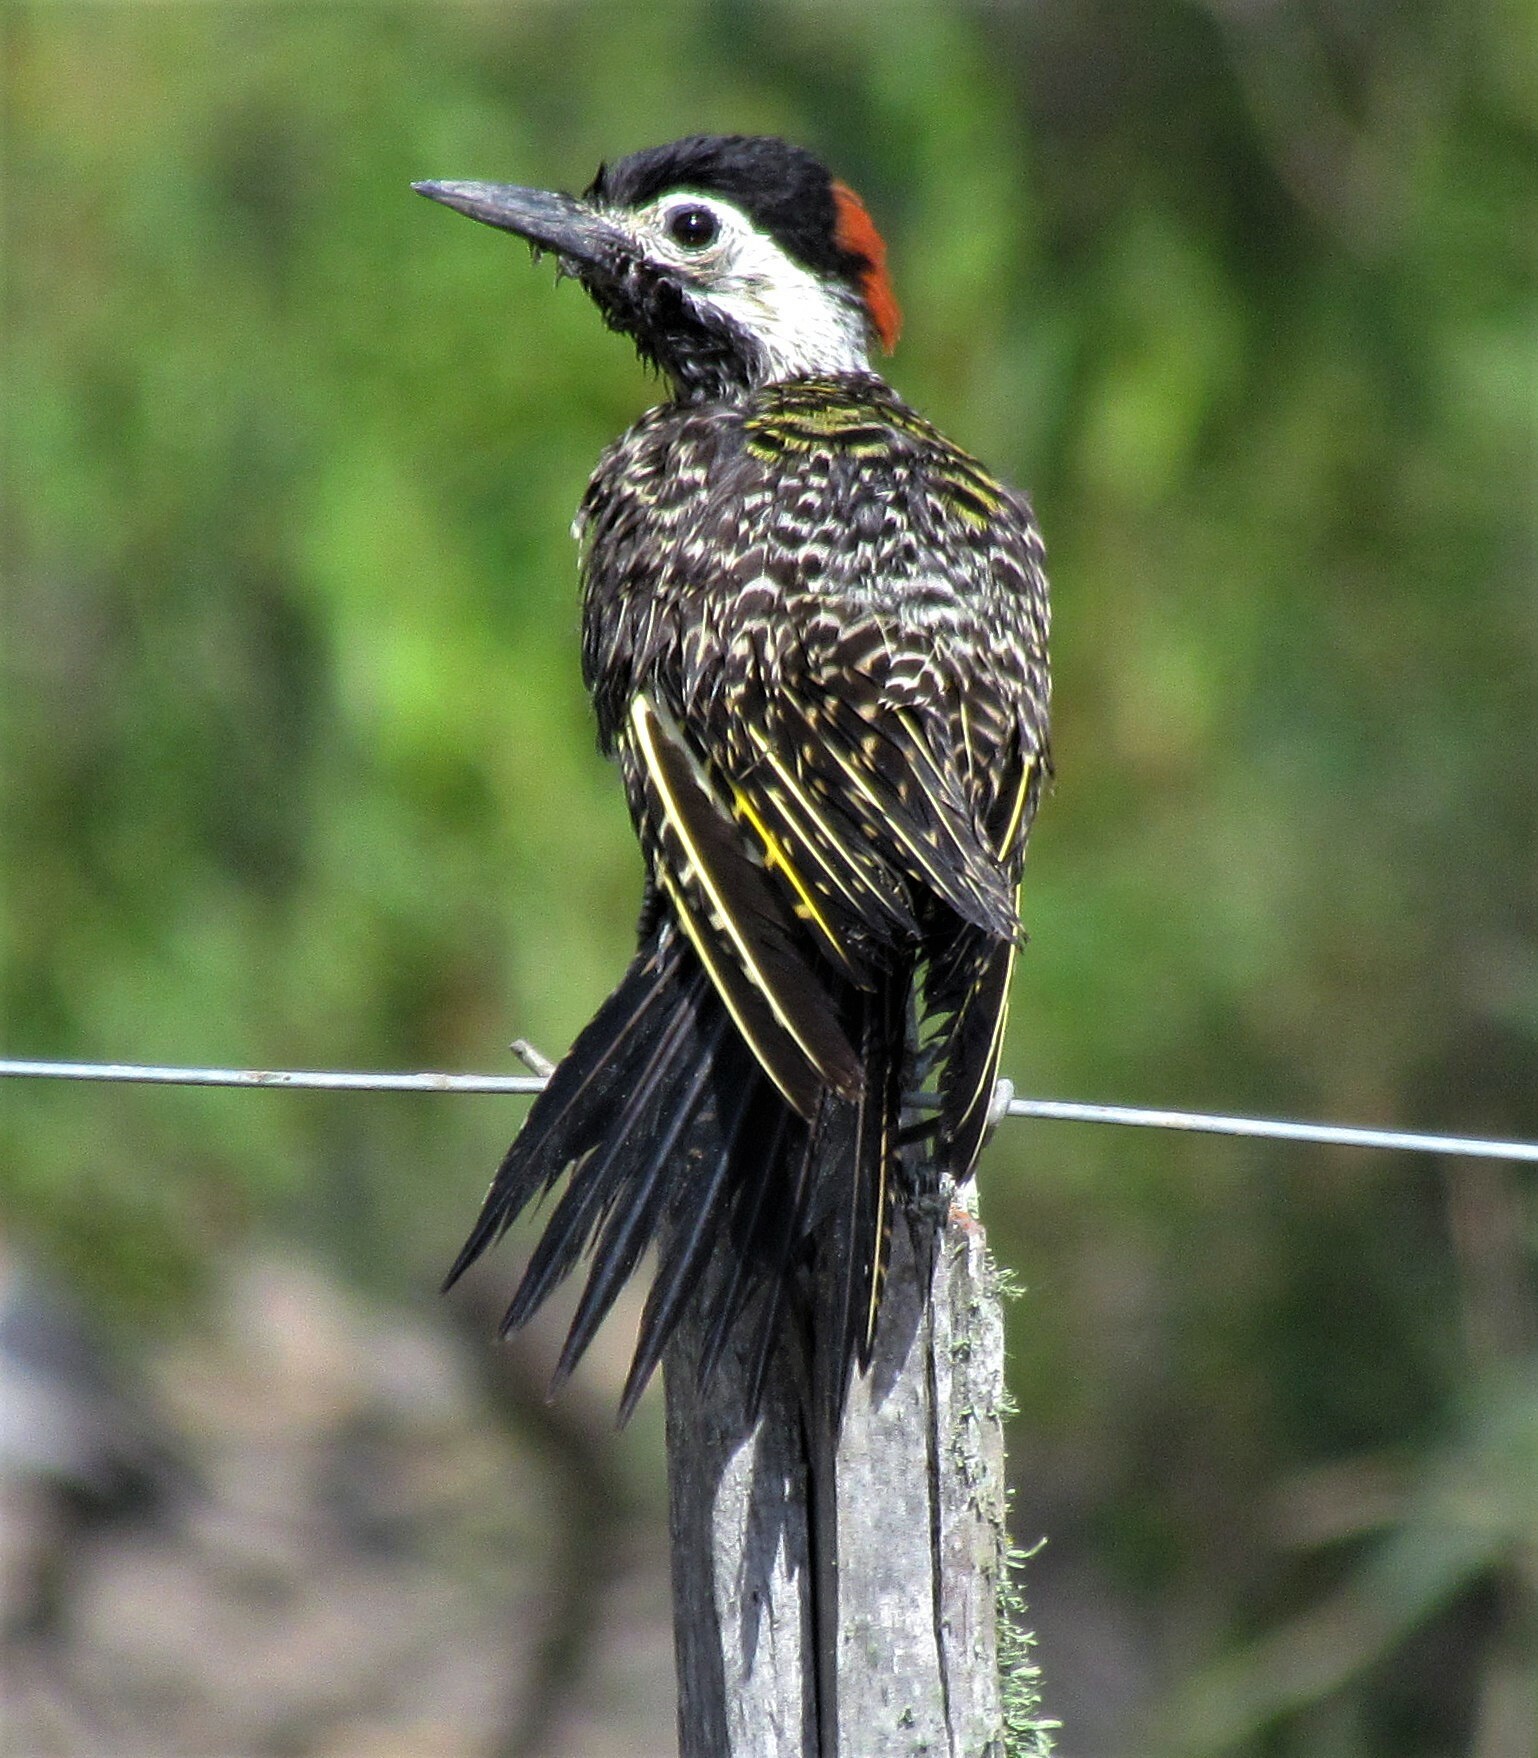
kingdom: Animalia
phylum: Chordata
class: Aves
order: Piciformes
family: Picidae
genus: Colaptes
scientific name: Colaptes melanochloros
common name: Green-barred woodpecker
